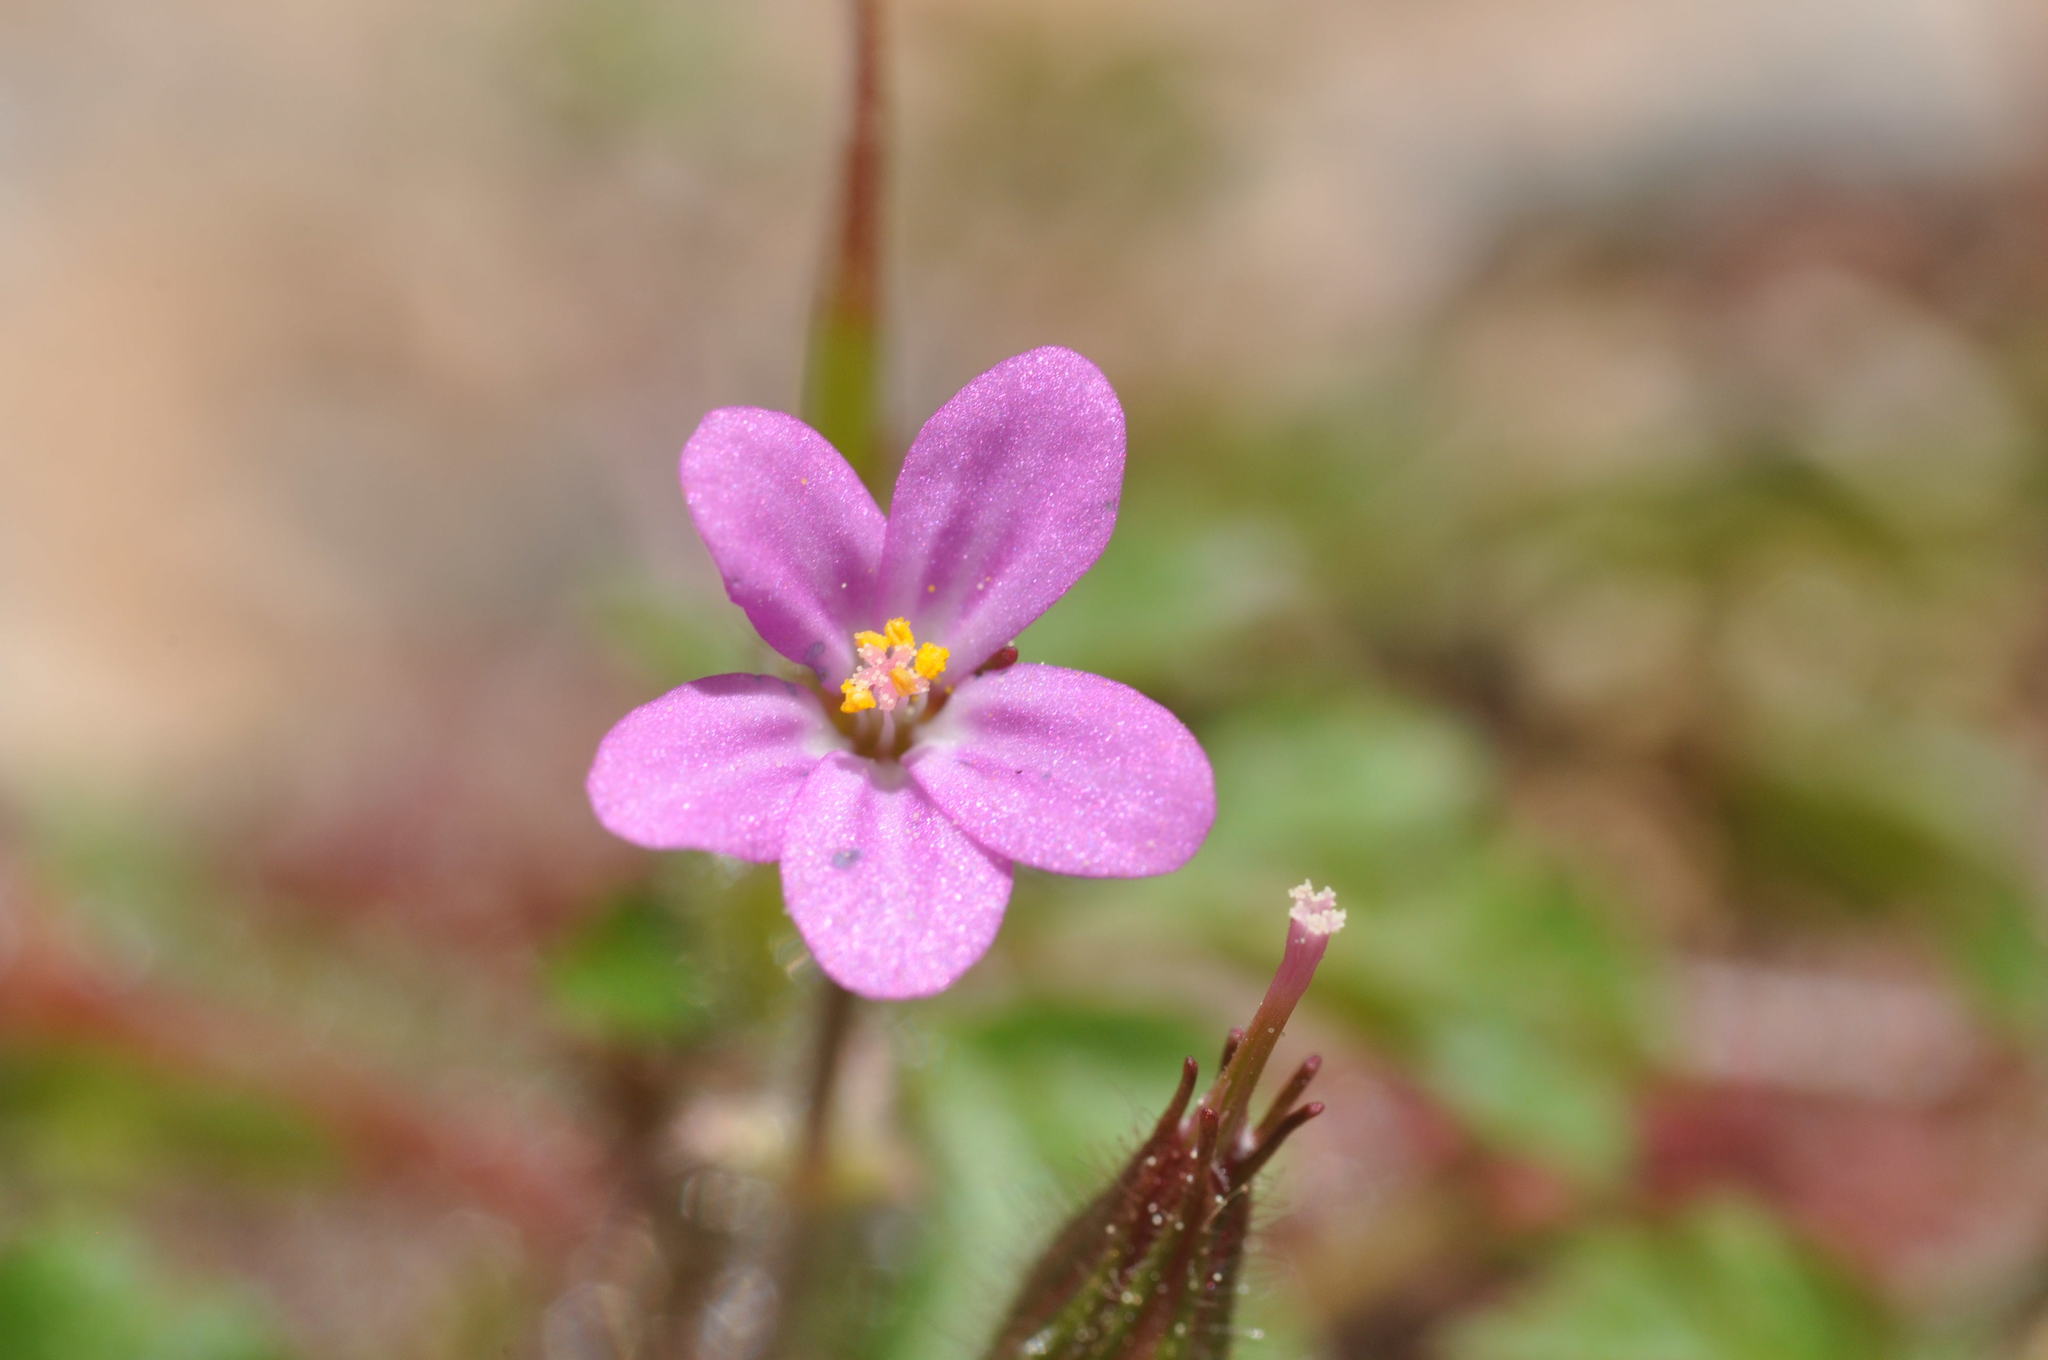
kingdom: Plantae
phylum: Tracheophyta
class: Magnoliopsida
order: Geraniales
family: Geraniaceae
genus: Geranium
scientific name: Geranium purpureum
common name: Little-robin
